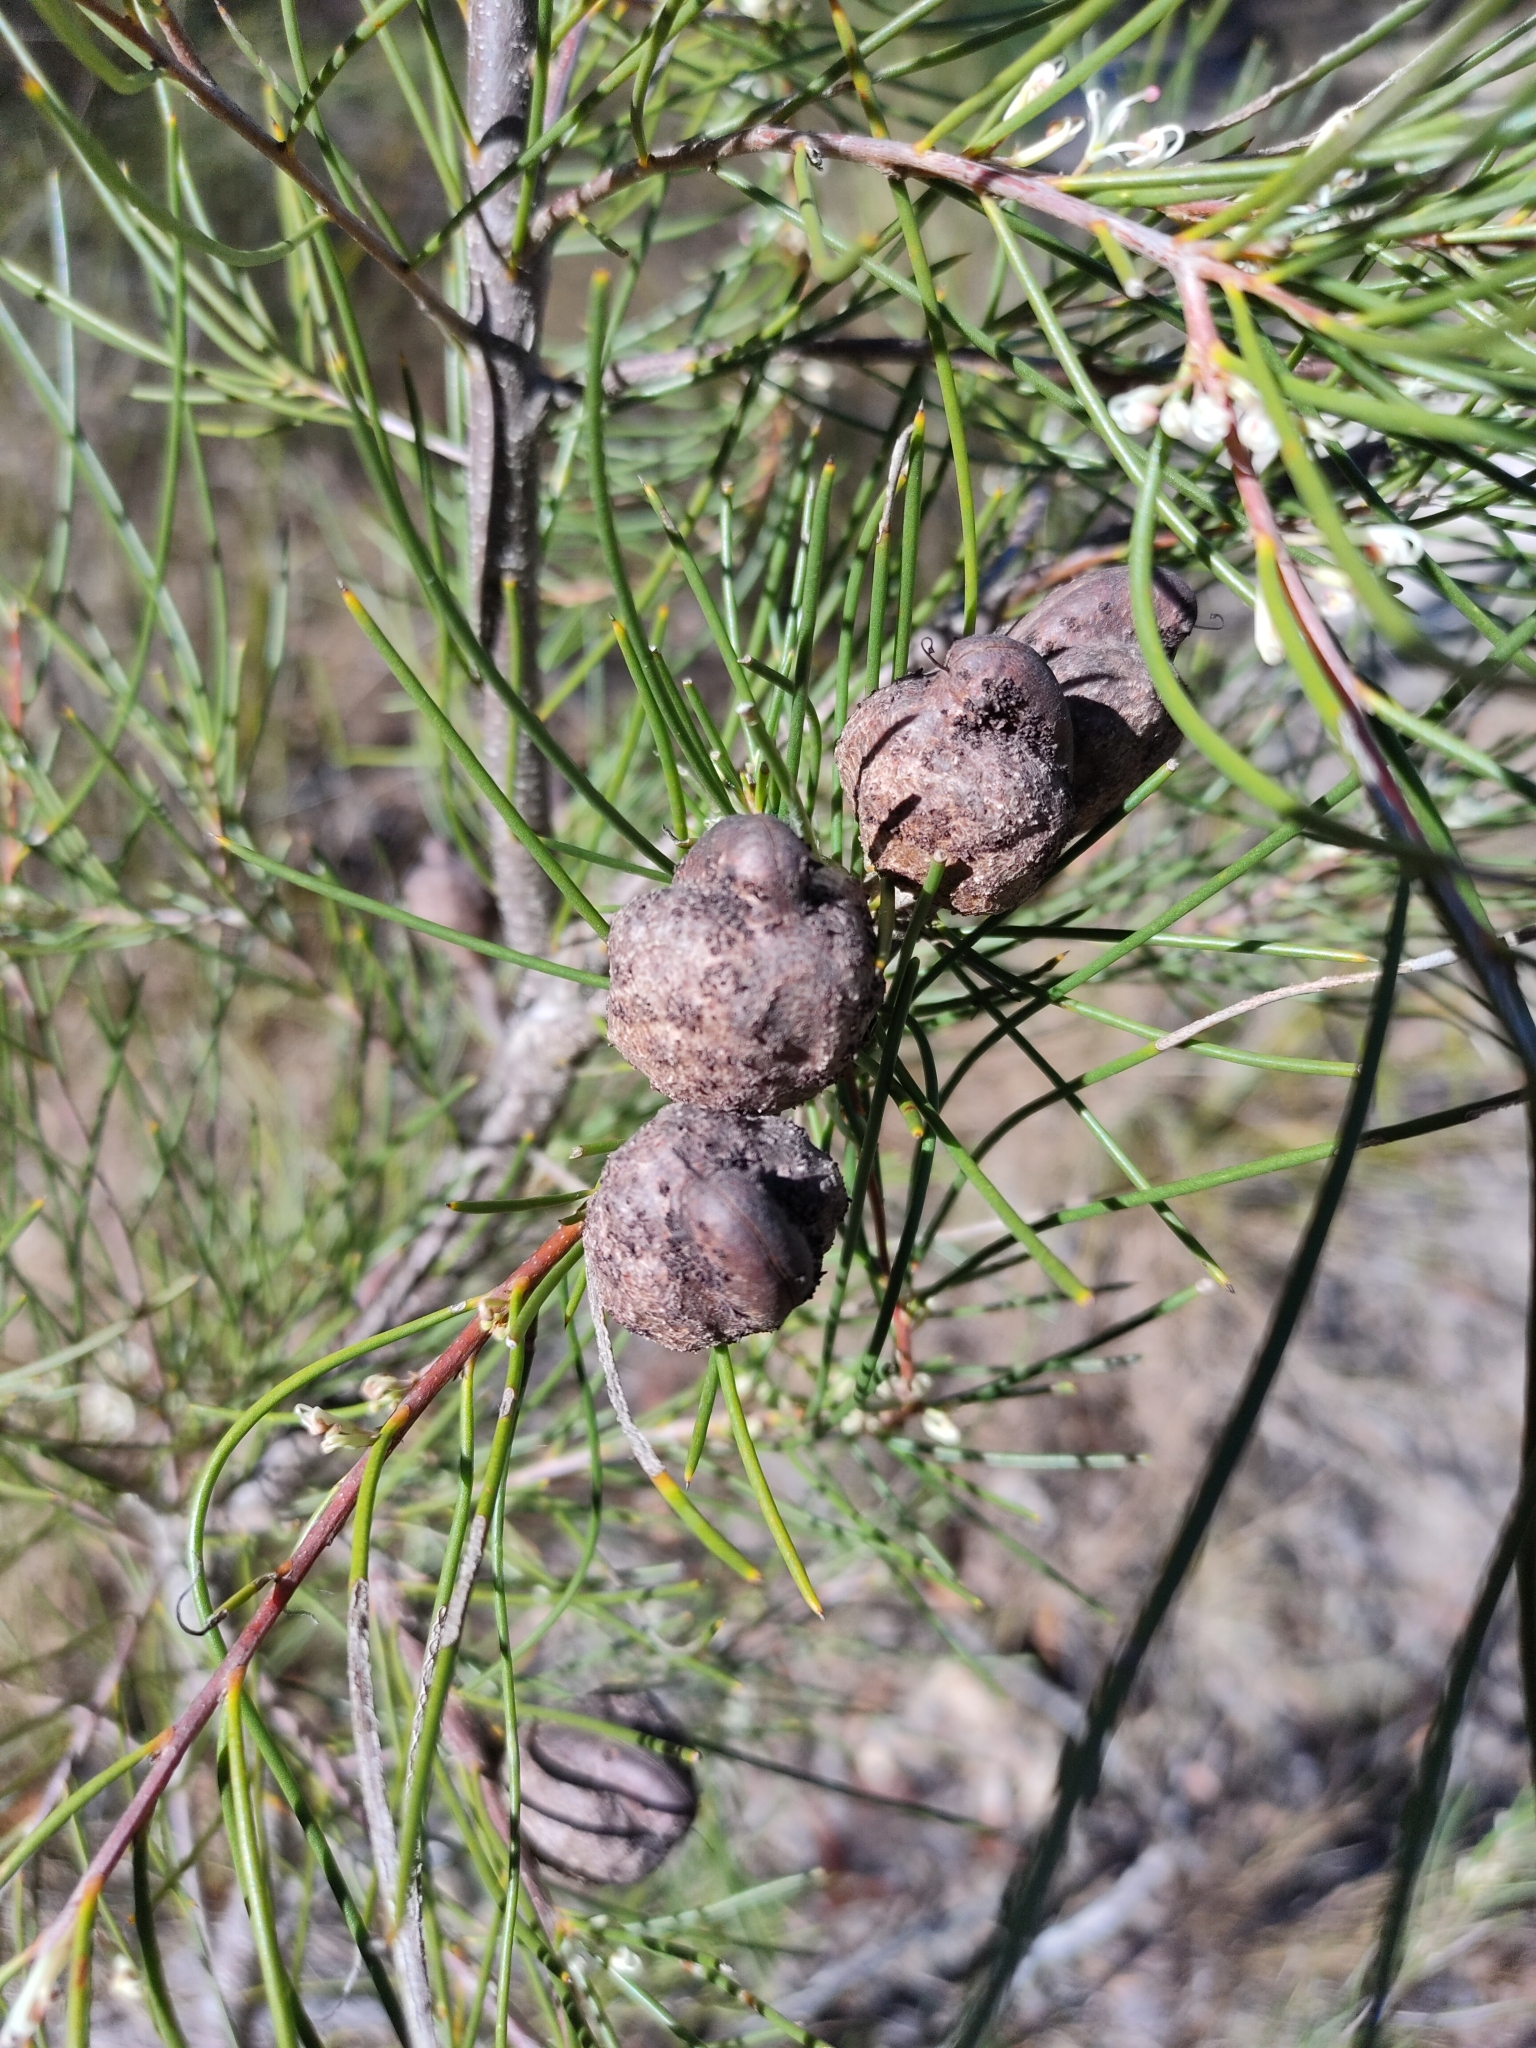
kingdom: Plantae
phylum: Tracheophyta
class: Magnoliopsida
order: Proteales
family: Proteaceae
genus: Hakea
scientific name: Hakea actites
